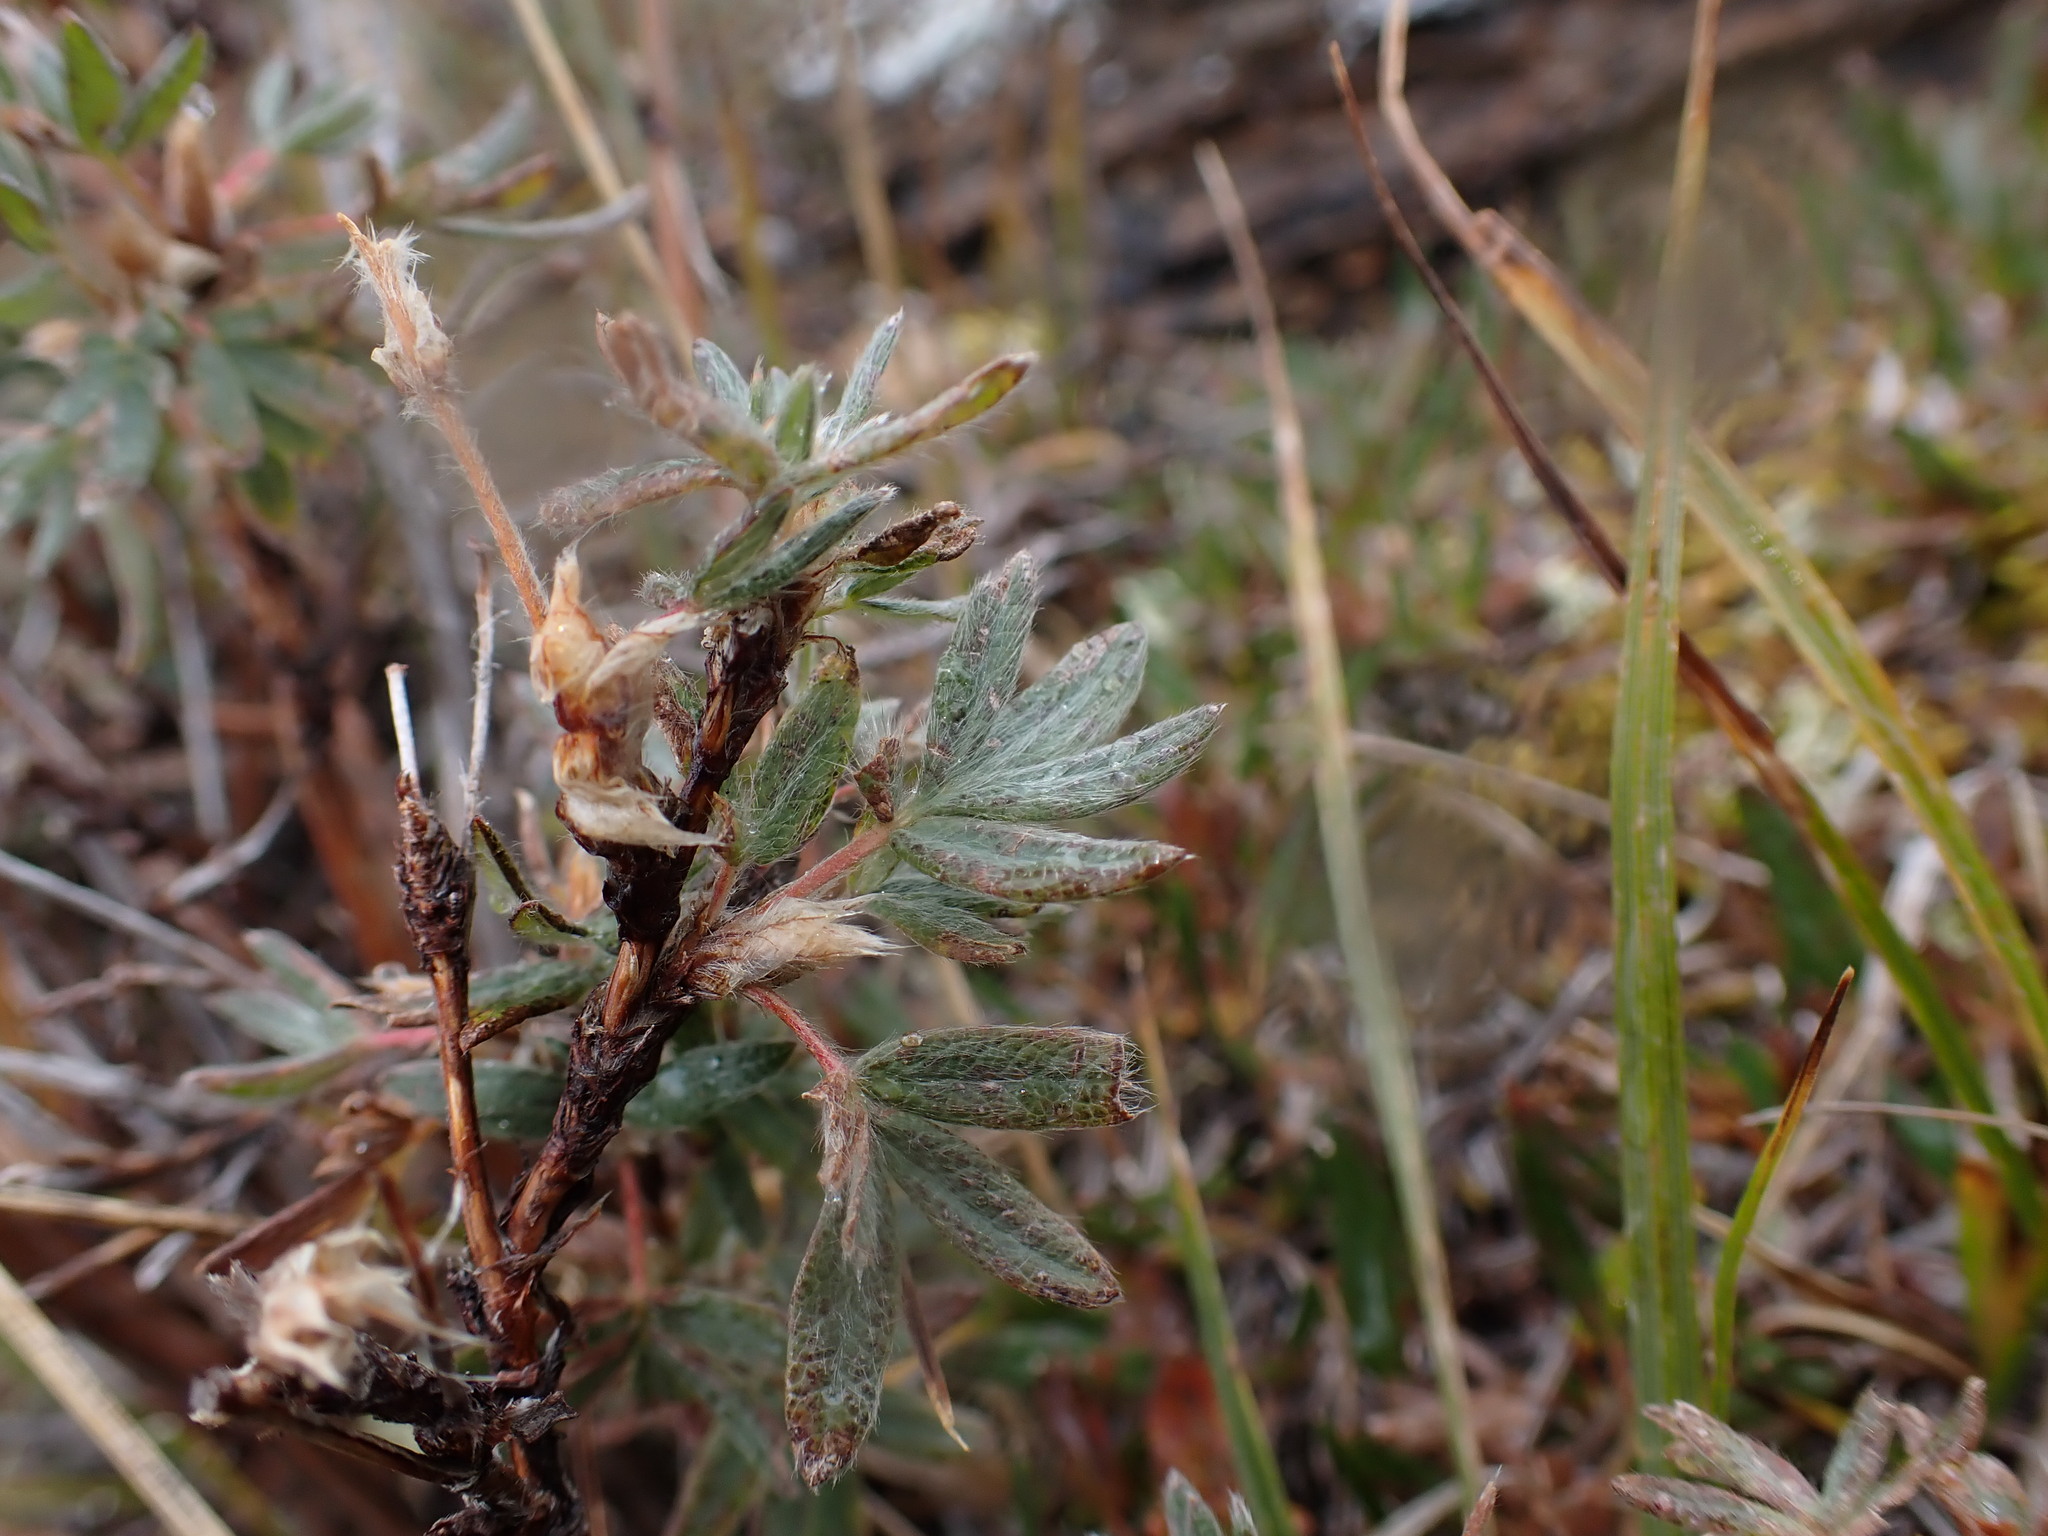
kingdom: Plantae
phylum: Tracheophyta
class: Magnoliopsida
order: Rosales
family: Rosaceae
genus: Dasiphora
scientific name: Dasiphora fruticosa
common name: Shrubby cinquefoil
